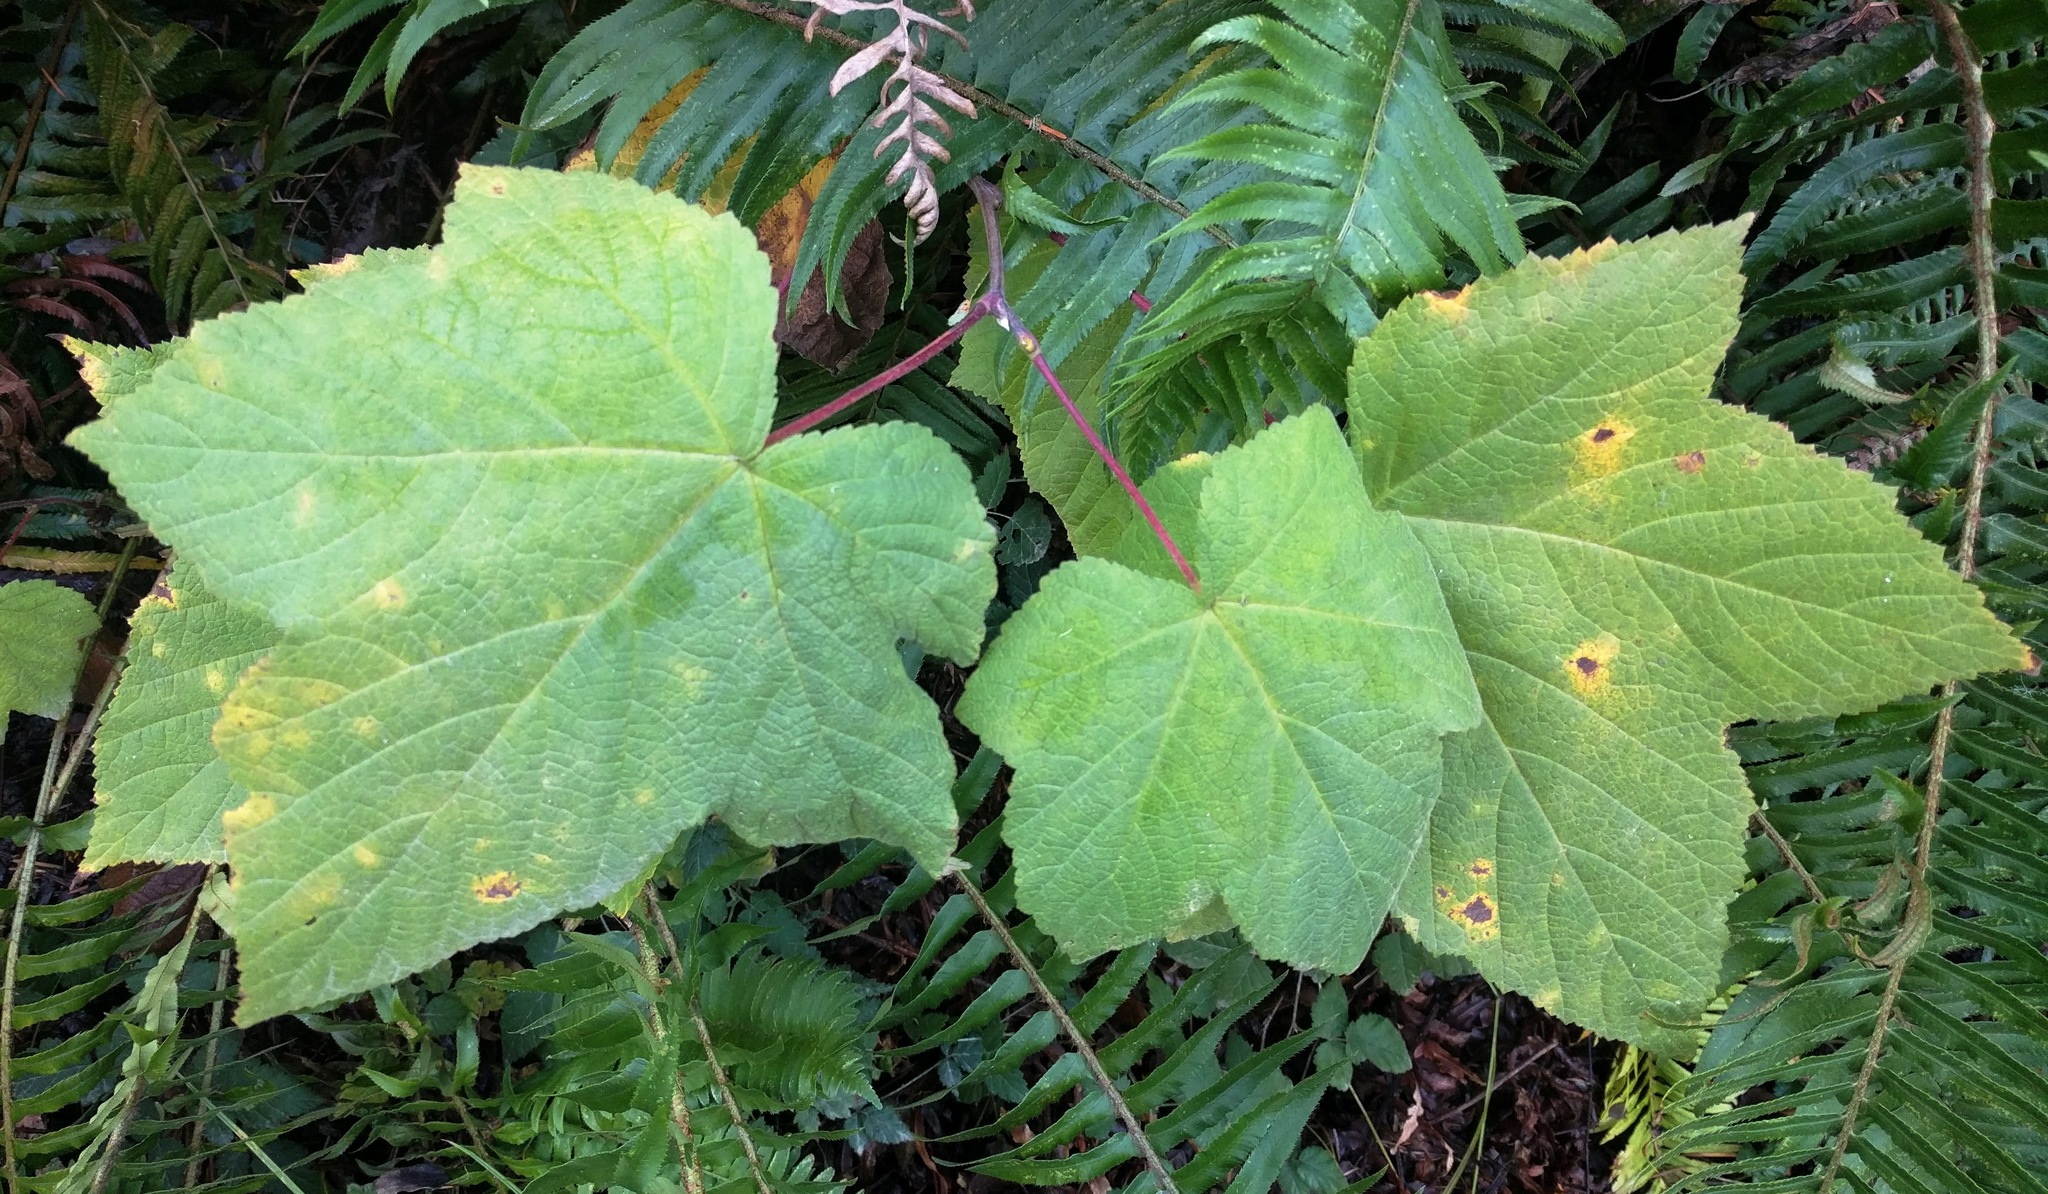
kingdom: Plantae
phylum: Tracheophyta
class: Magnoliopsida
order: Rosales
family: Rosaceae
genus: Rubus
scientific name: Rubus parviflorus
